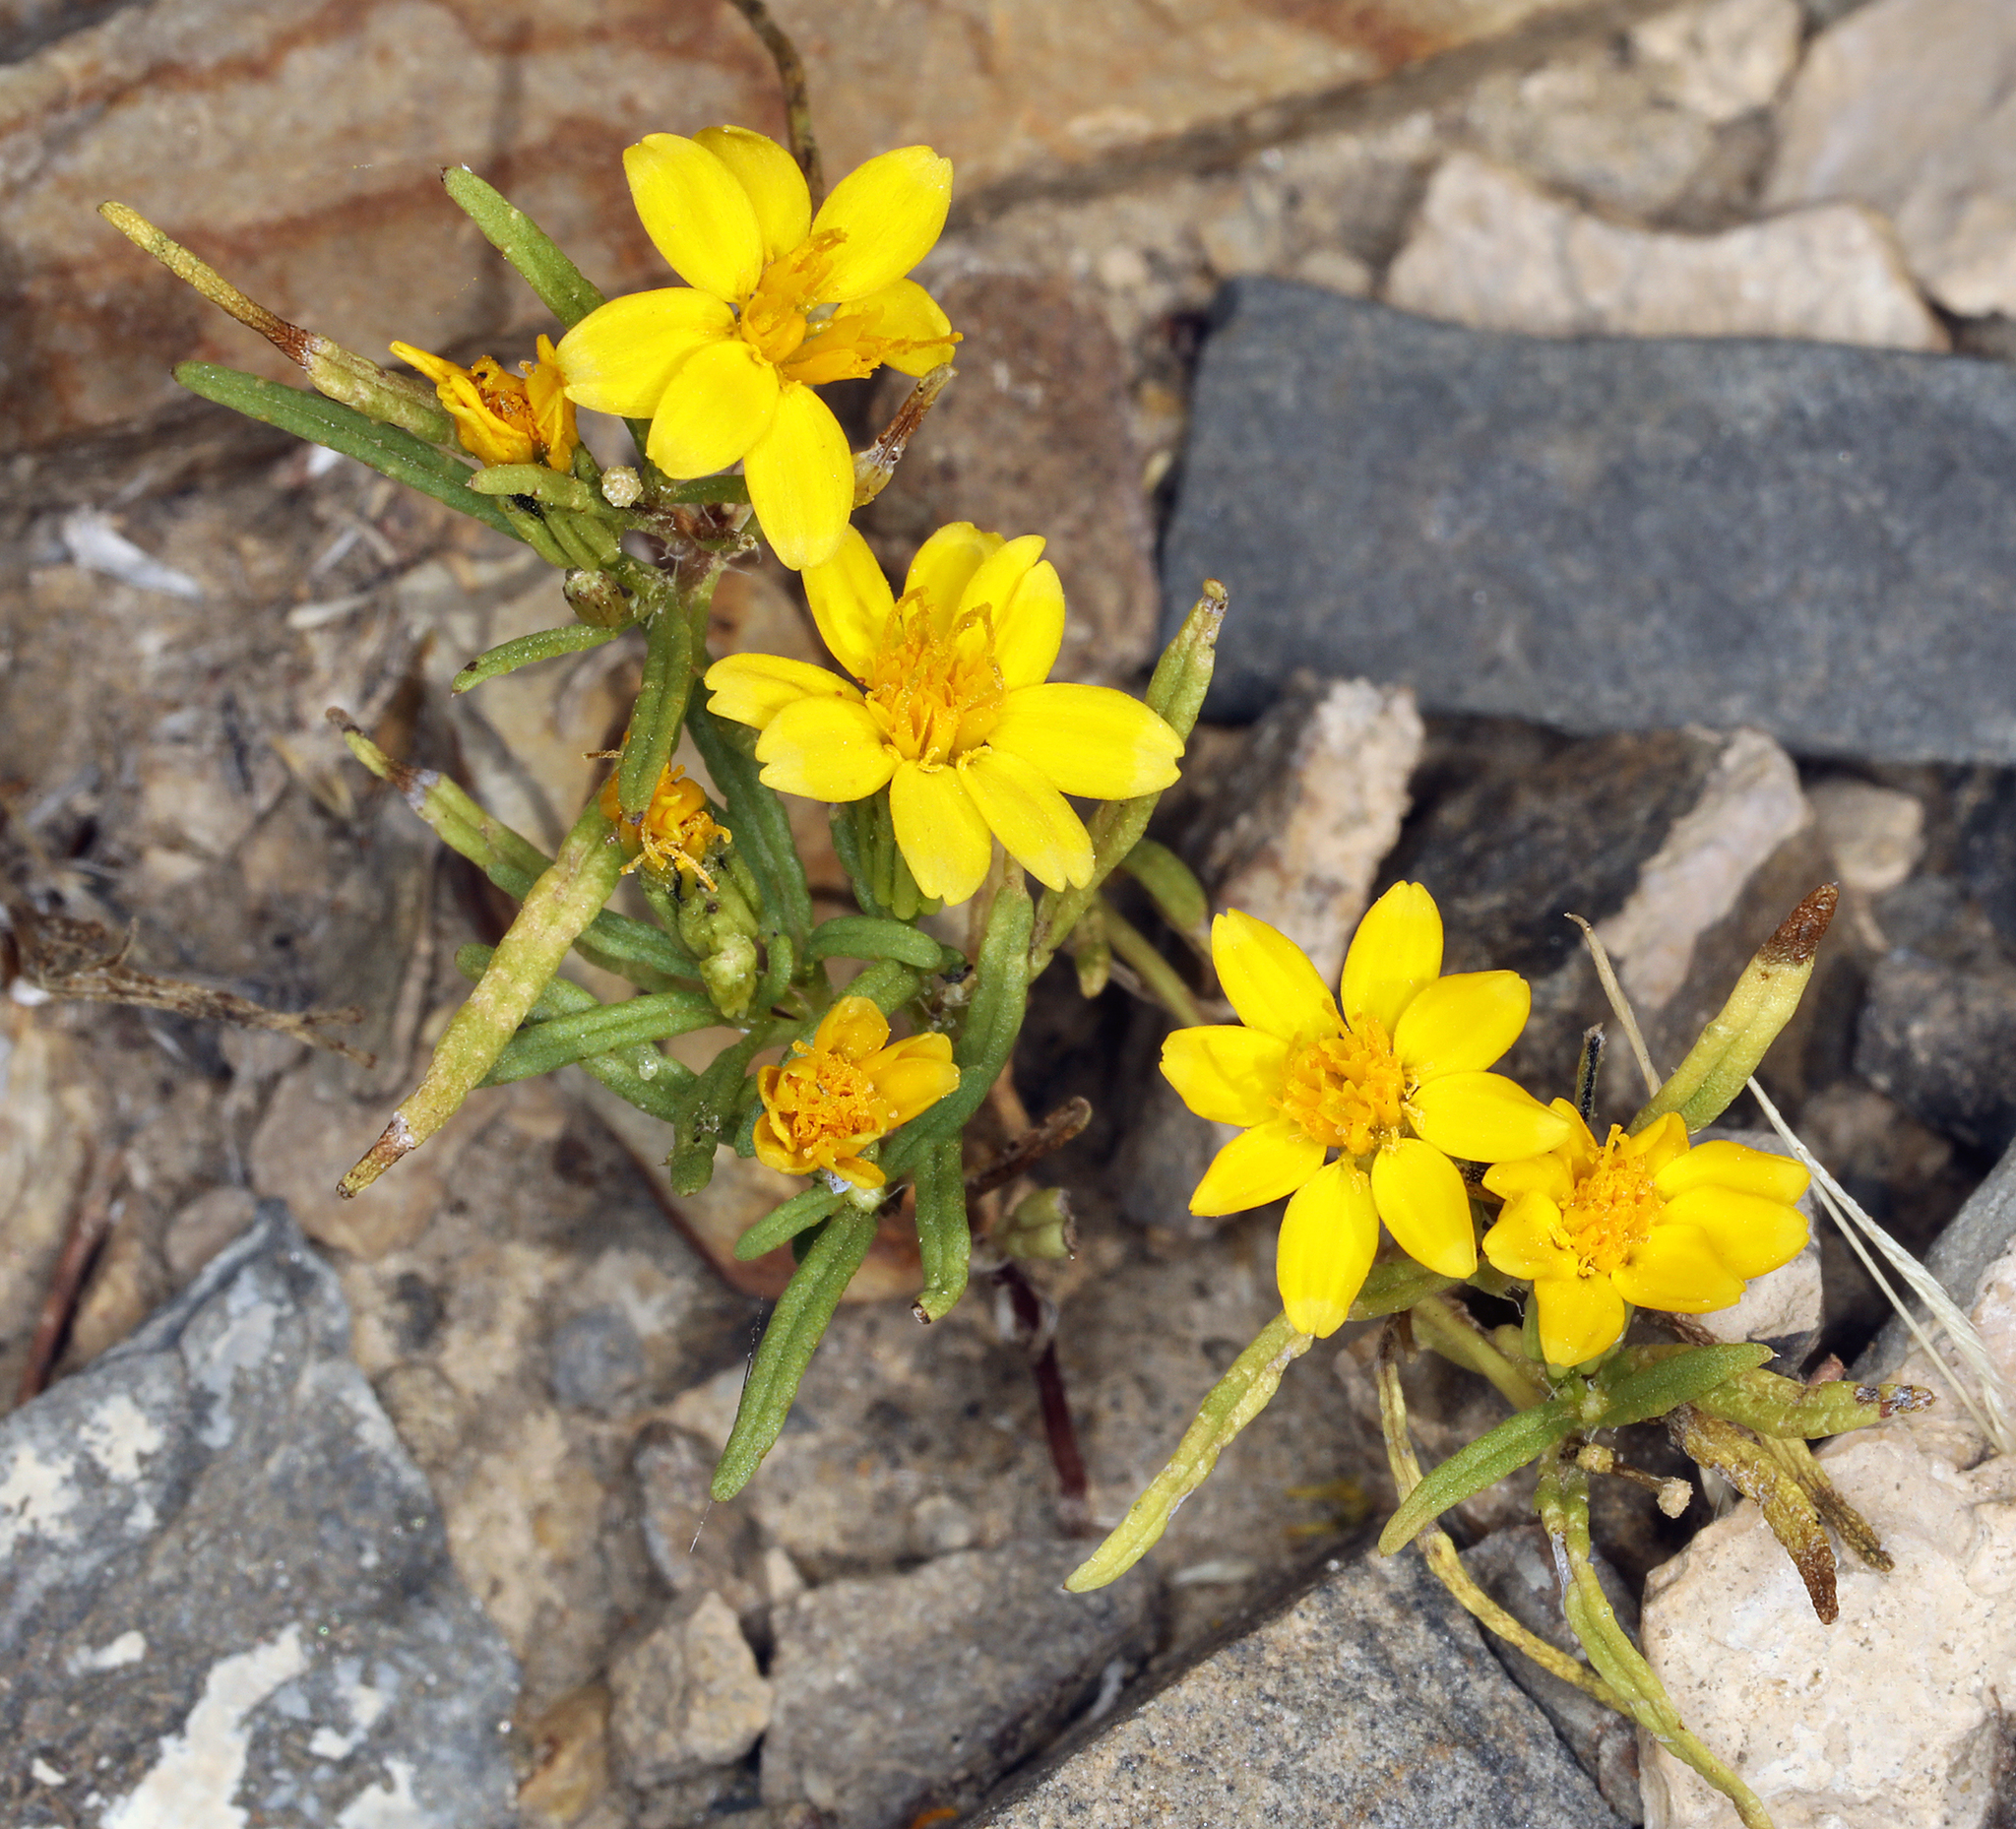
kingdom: Plantae
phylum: Tracheophyta
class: Magnoliopsida
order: Asterales
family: Asteraceae
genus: Pectis
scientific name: Pectis papposa
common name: Many-bristle chinchweed
